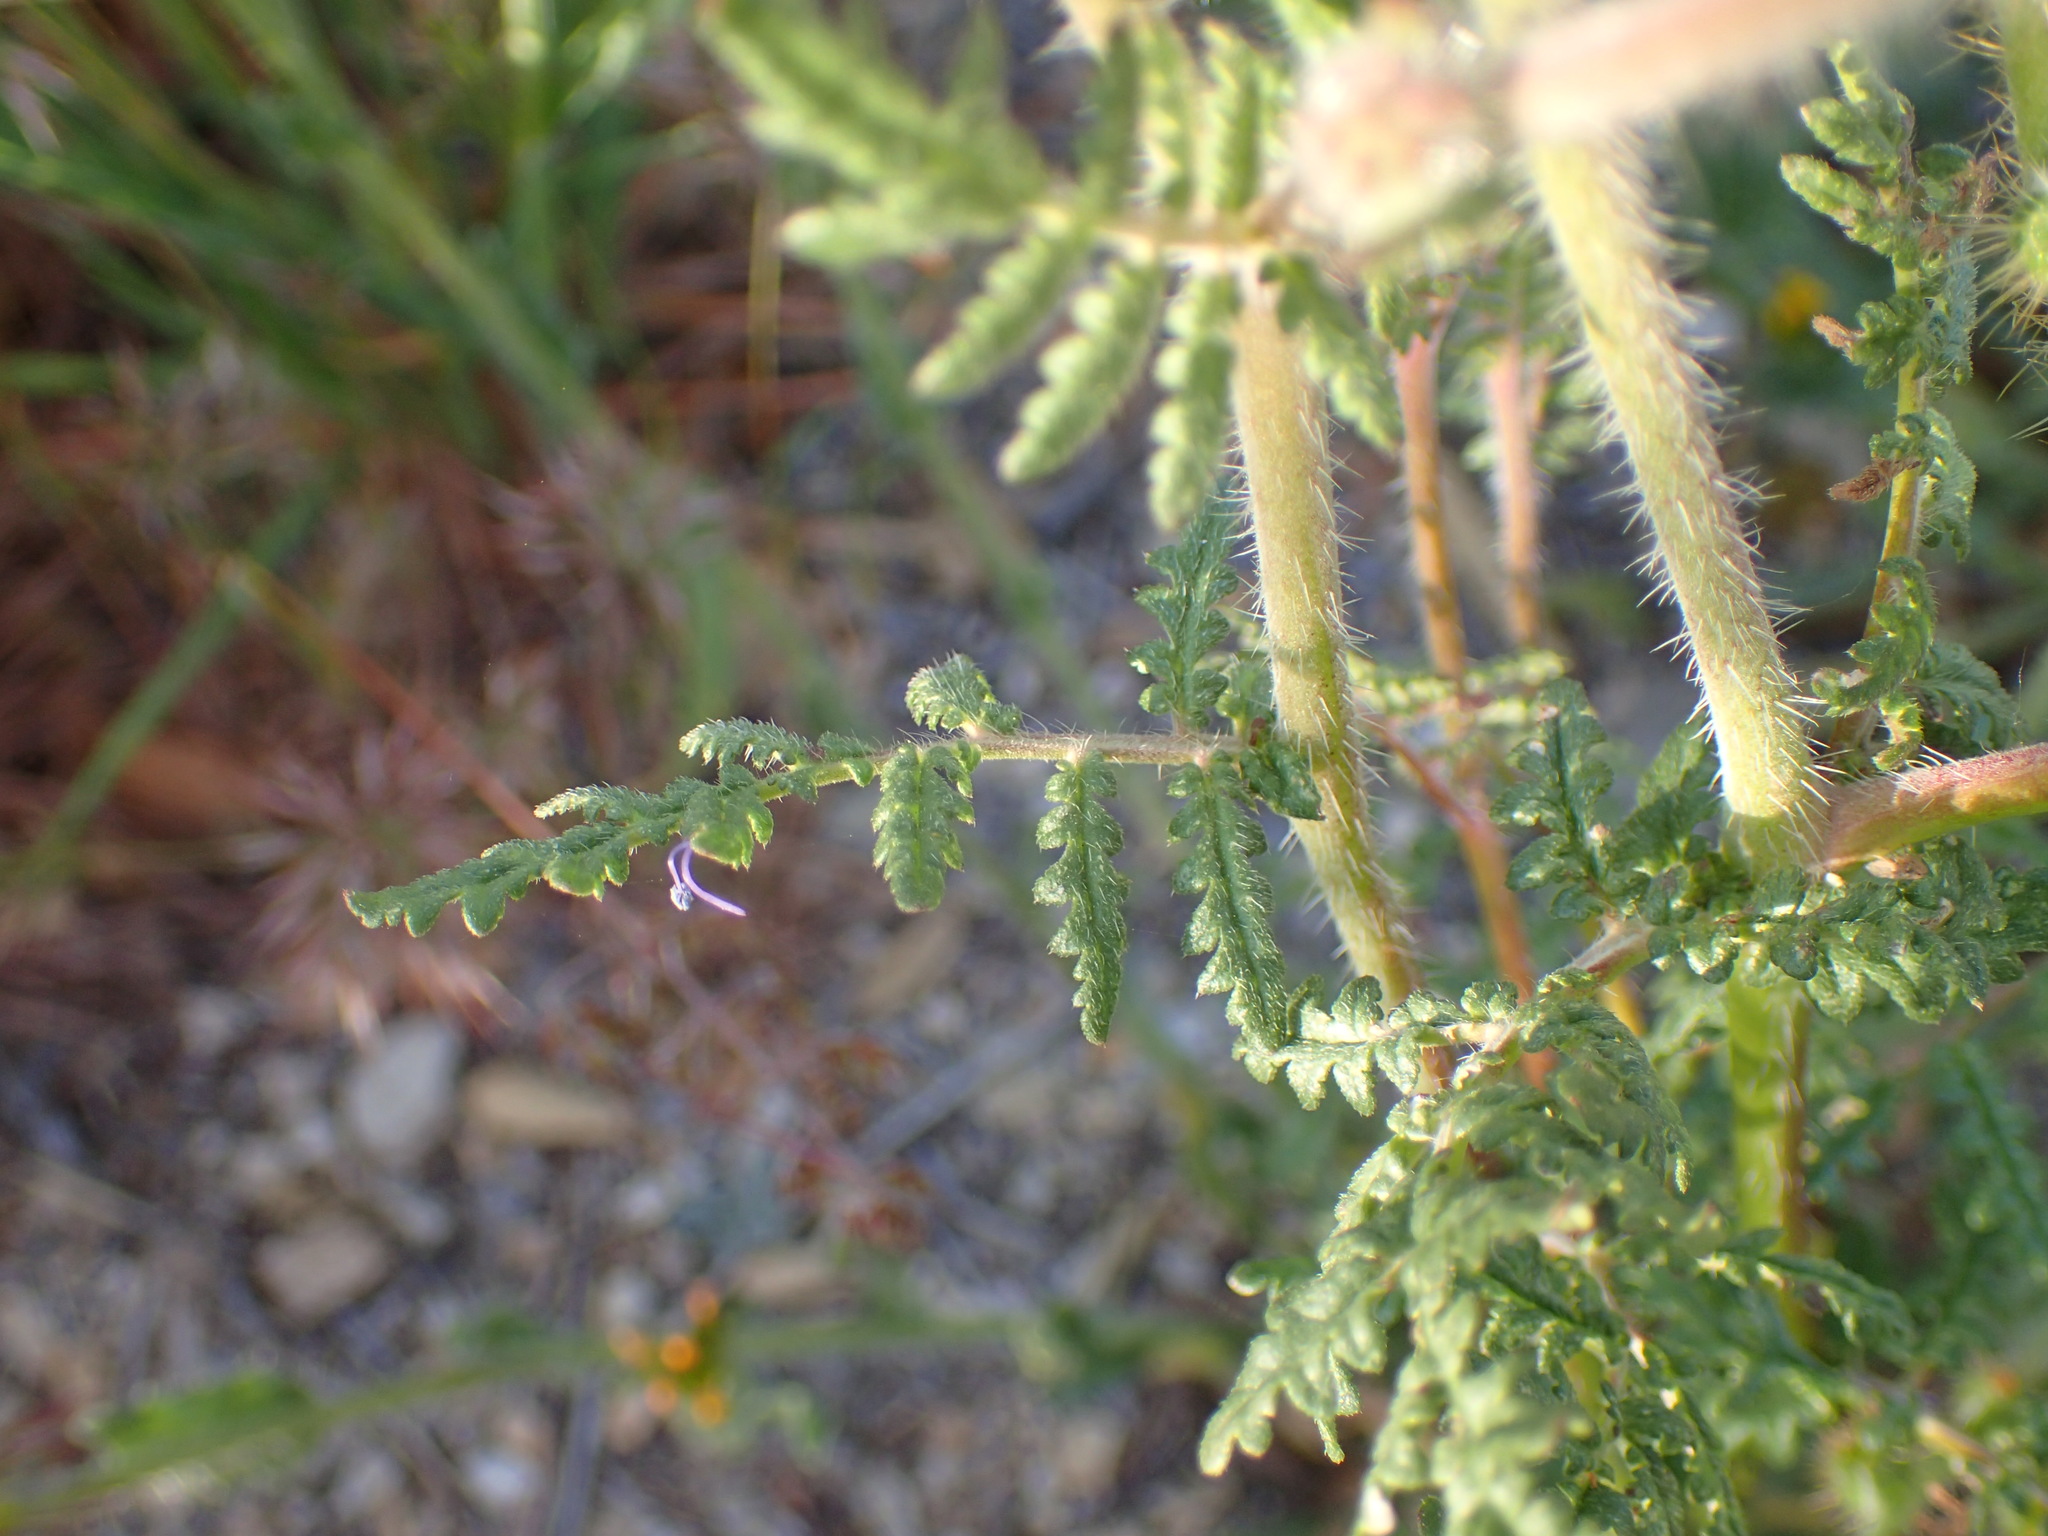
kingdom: Plantae
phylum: Tracheophyta
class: Magnoliopsida
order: Boraginales
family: Hydrophyllaceae
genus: Phacelia
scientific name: Phacelia tanacetifolia
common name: Phacelia
